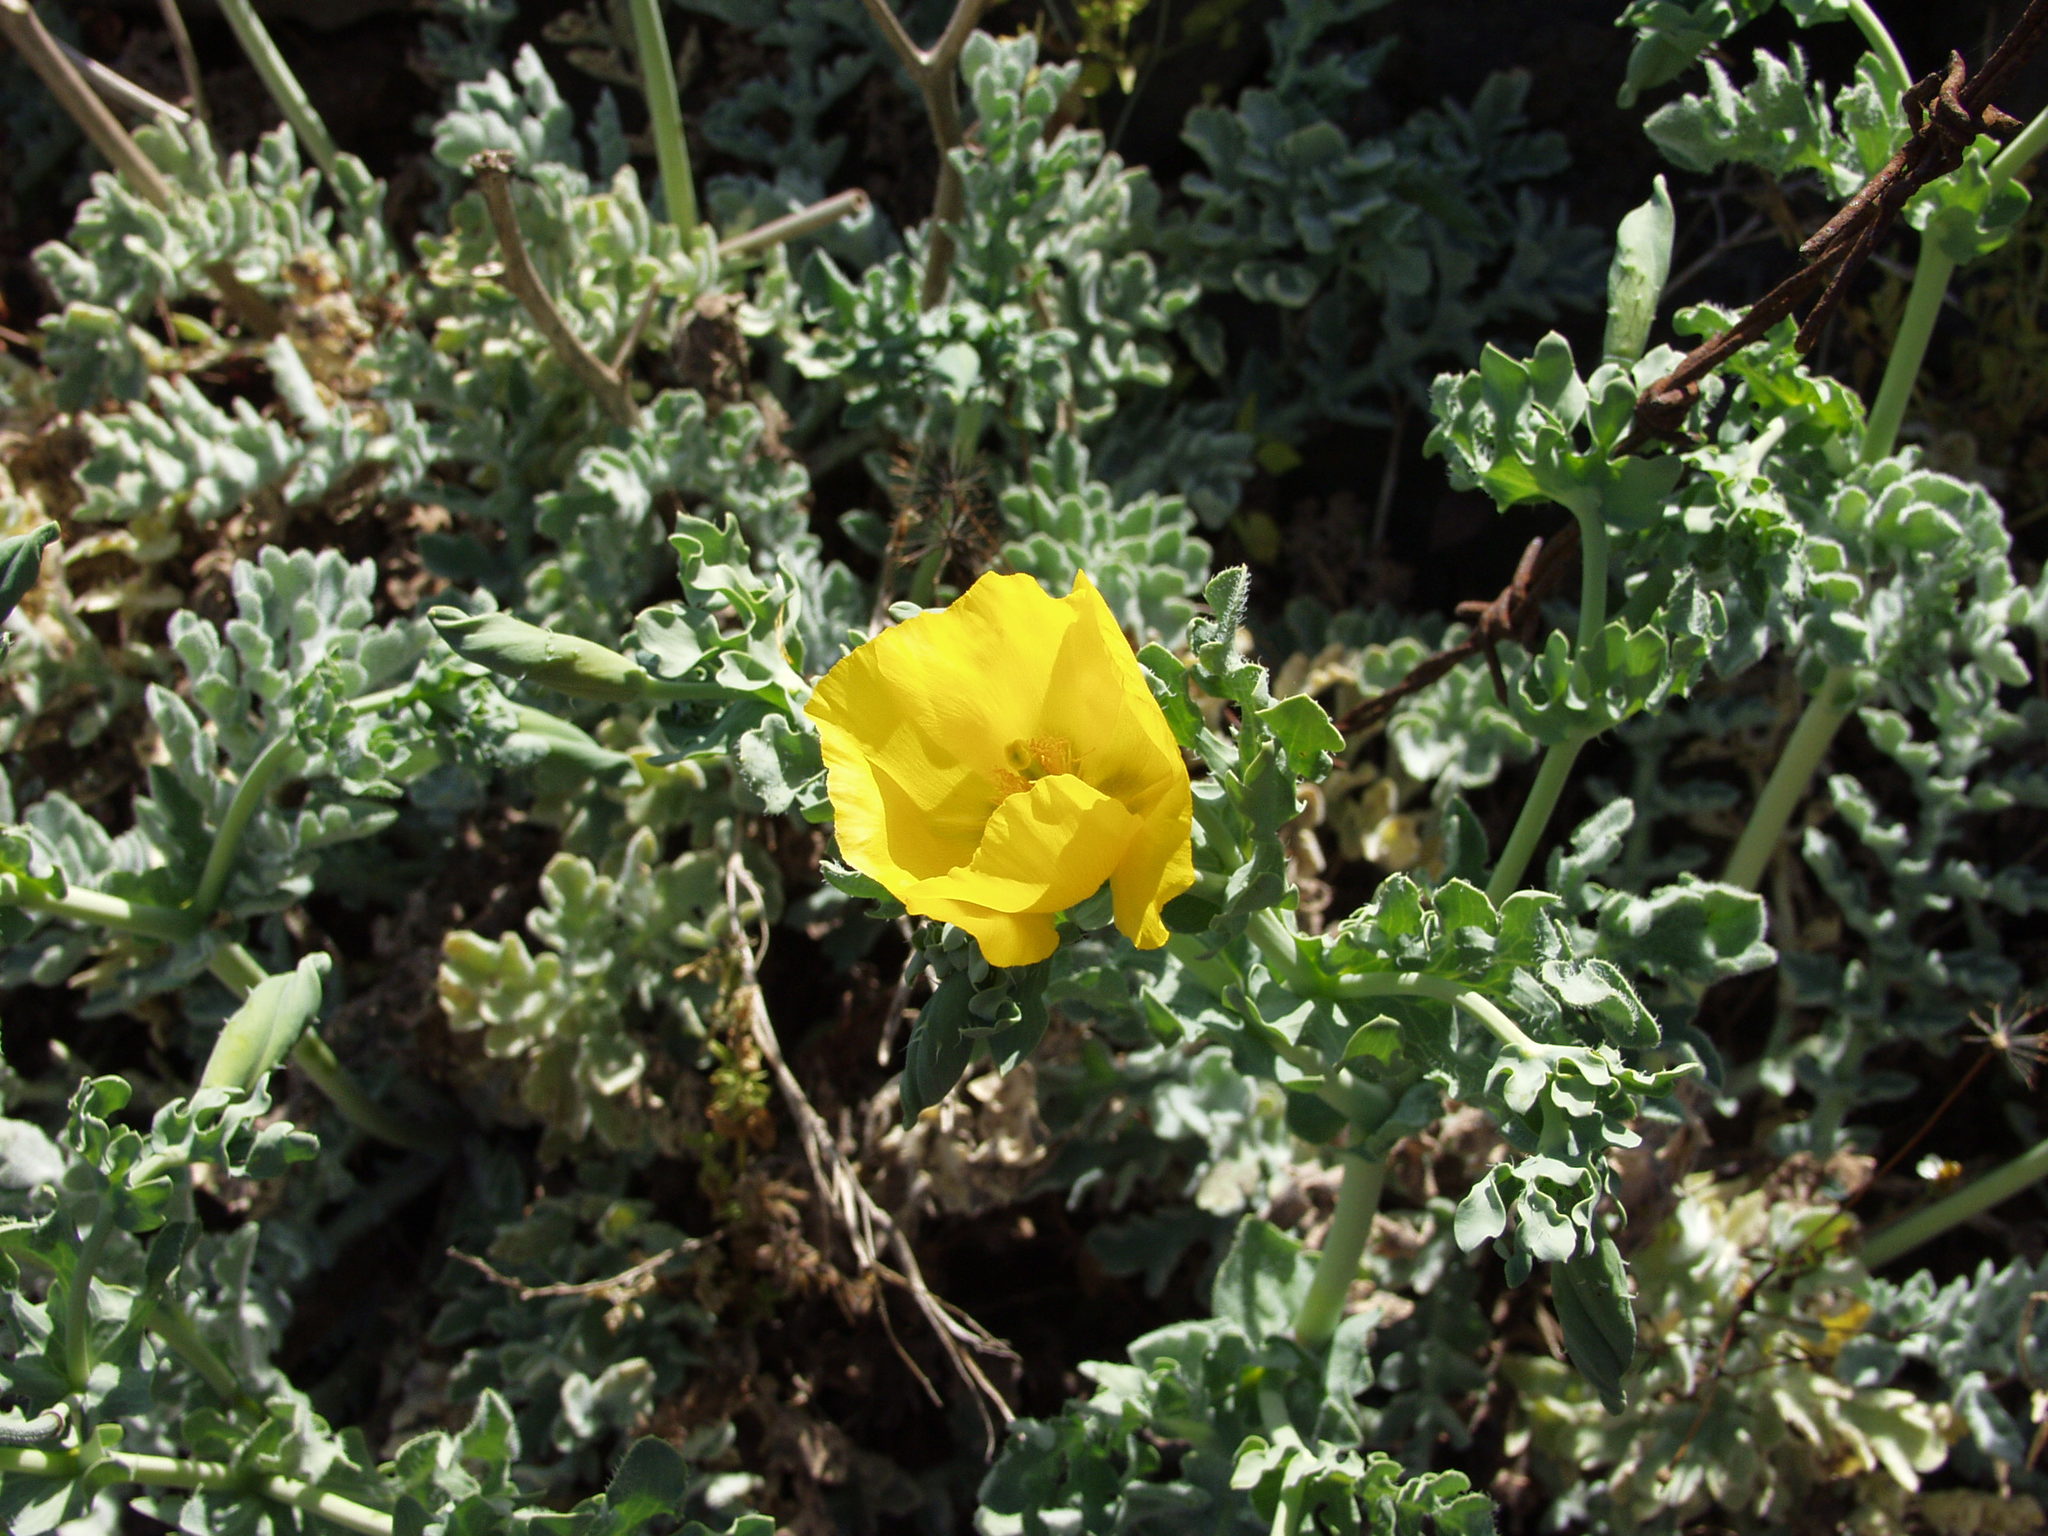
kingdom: Plantae
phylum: Tracheophyta
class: Magnoliopsida
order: Ranunculales
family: Papaveraceae
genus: Glaucium
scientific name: Glaucium flavum
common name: Yellow horned-poppy
